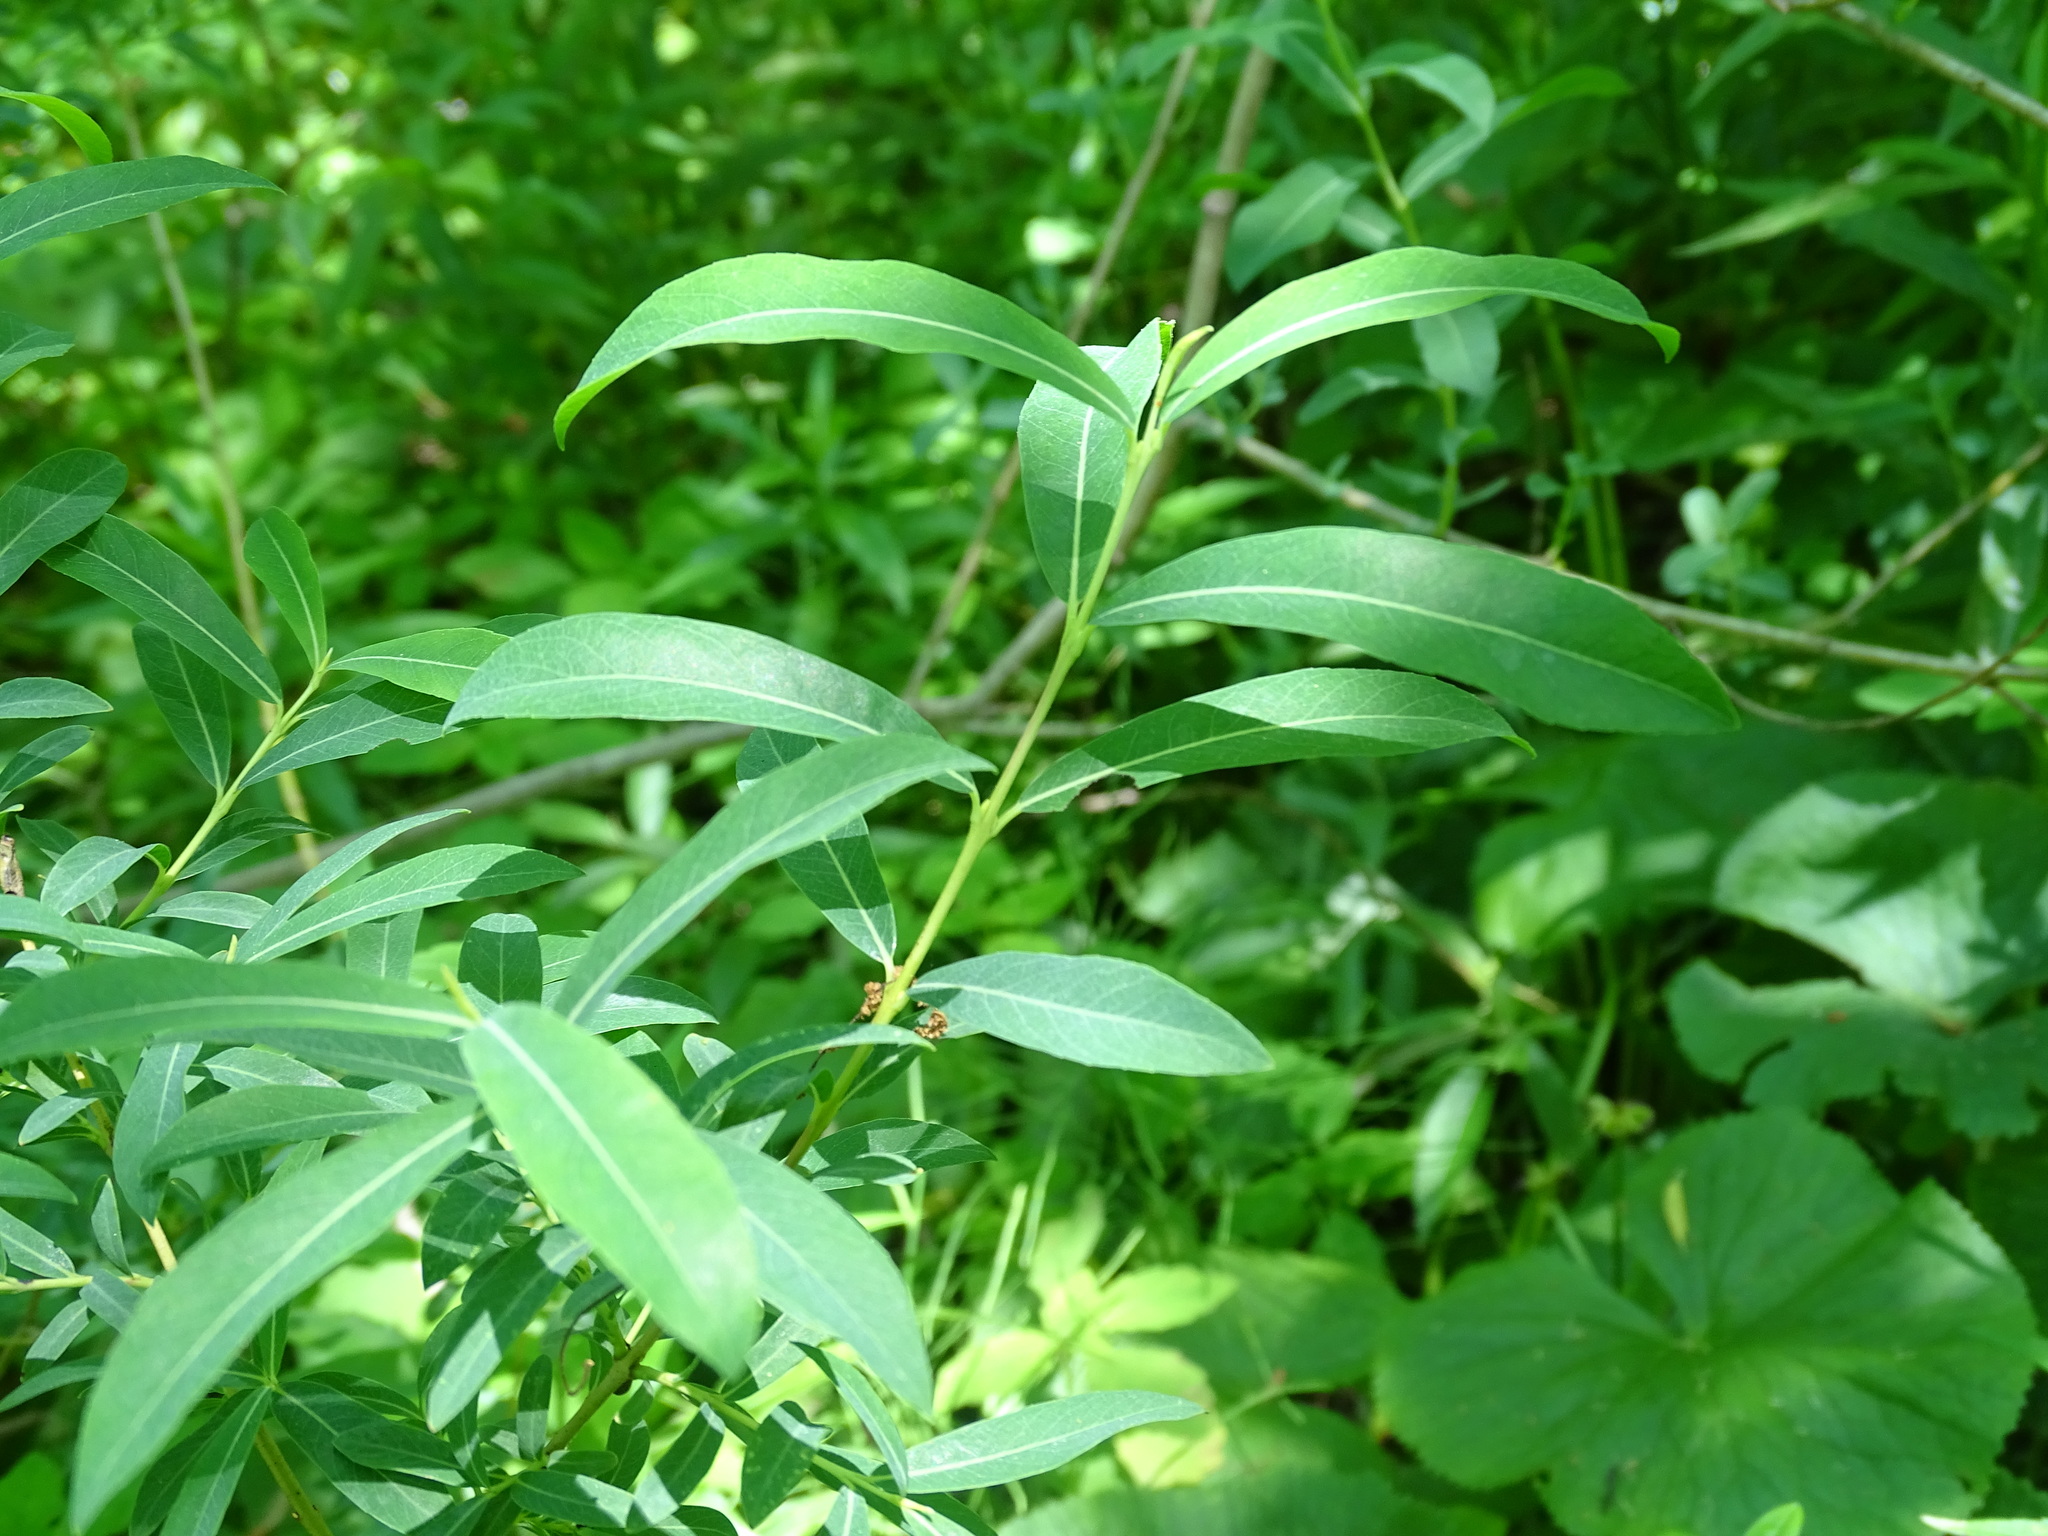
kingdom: Plantae
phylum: Tracheophyta
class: Magnoliopsida
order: Malpighiales
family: Salicaceae
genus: Salix
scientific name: Salix purpurea
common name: Purple willow
